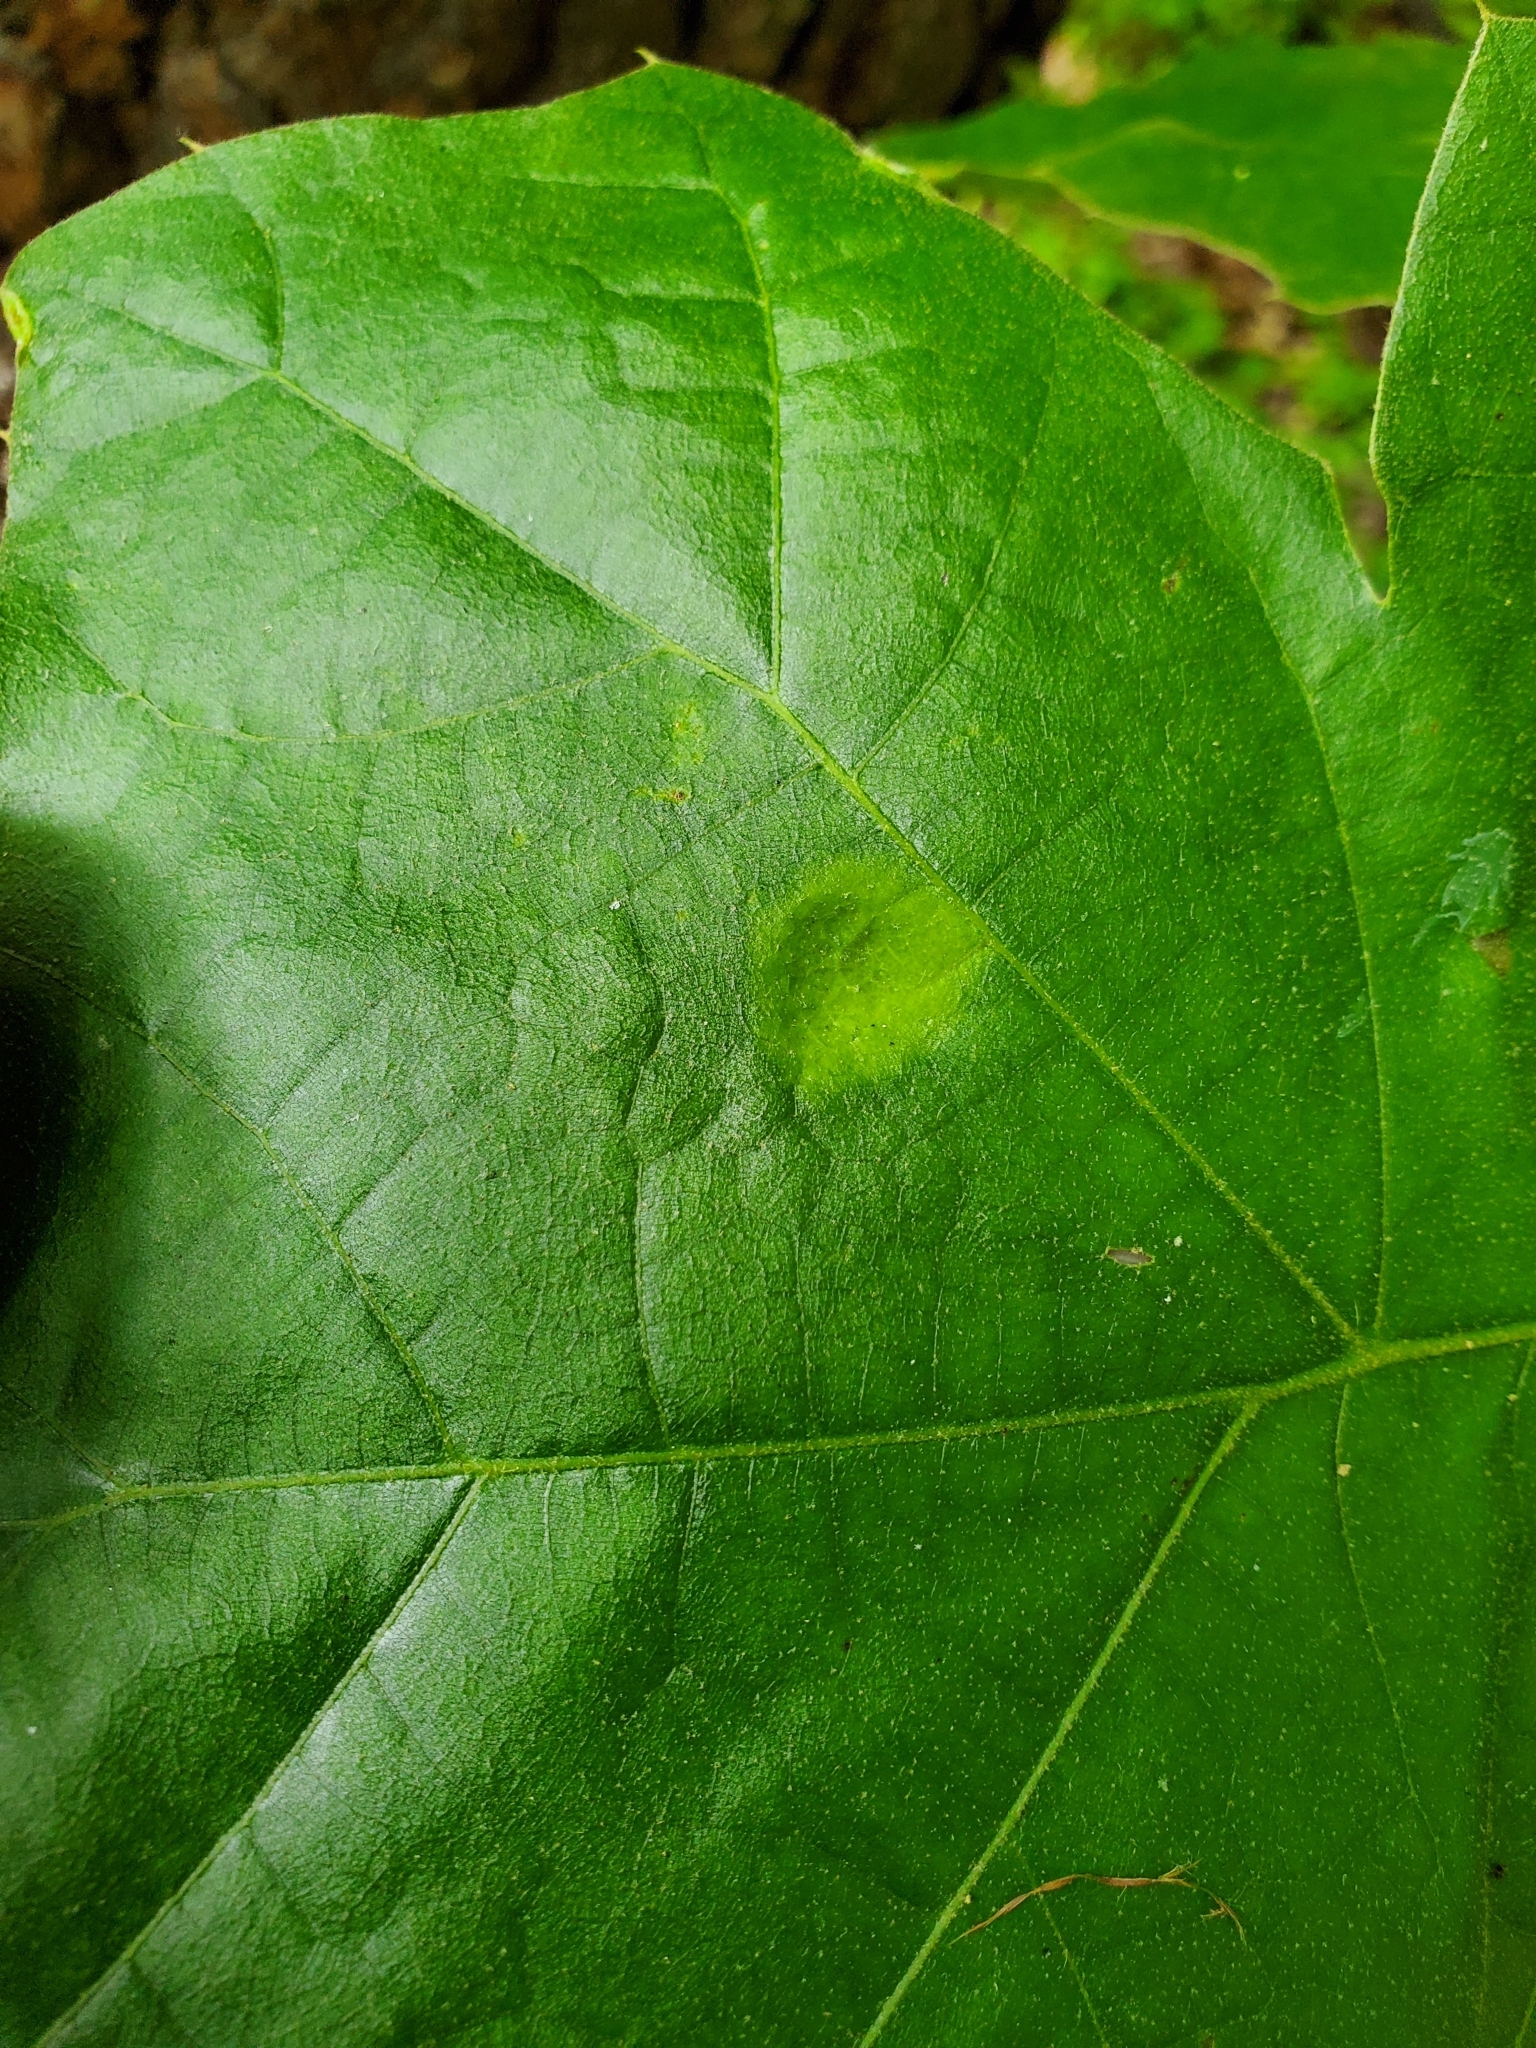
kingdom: Fungi
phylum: Ascomycota
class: Taphrinomycetes
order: Taphrinales
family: Taphrinaceae
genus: Taphrina
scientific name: Taphrina caerulescens
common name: Oak leaf blister
